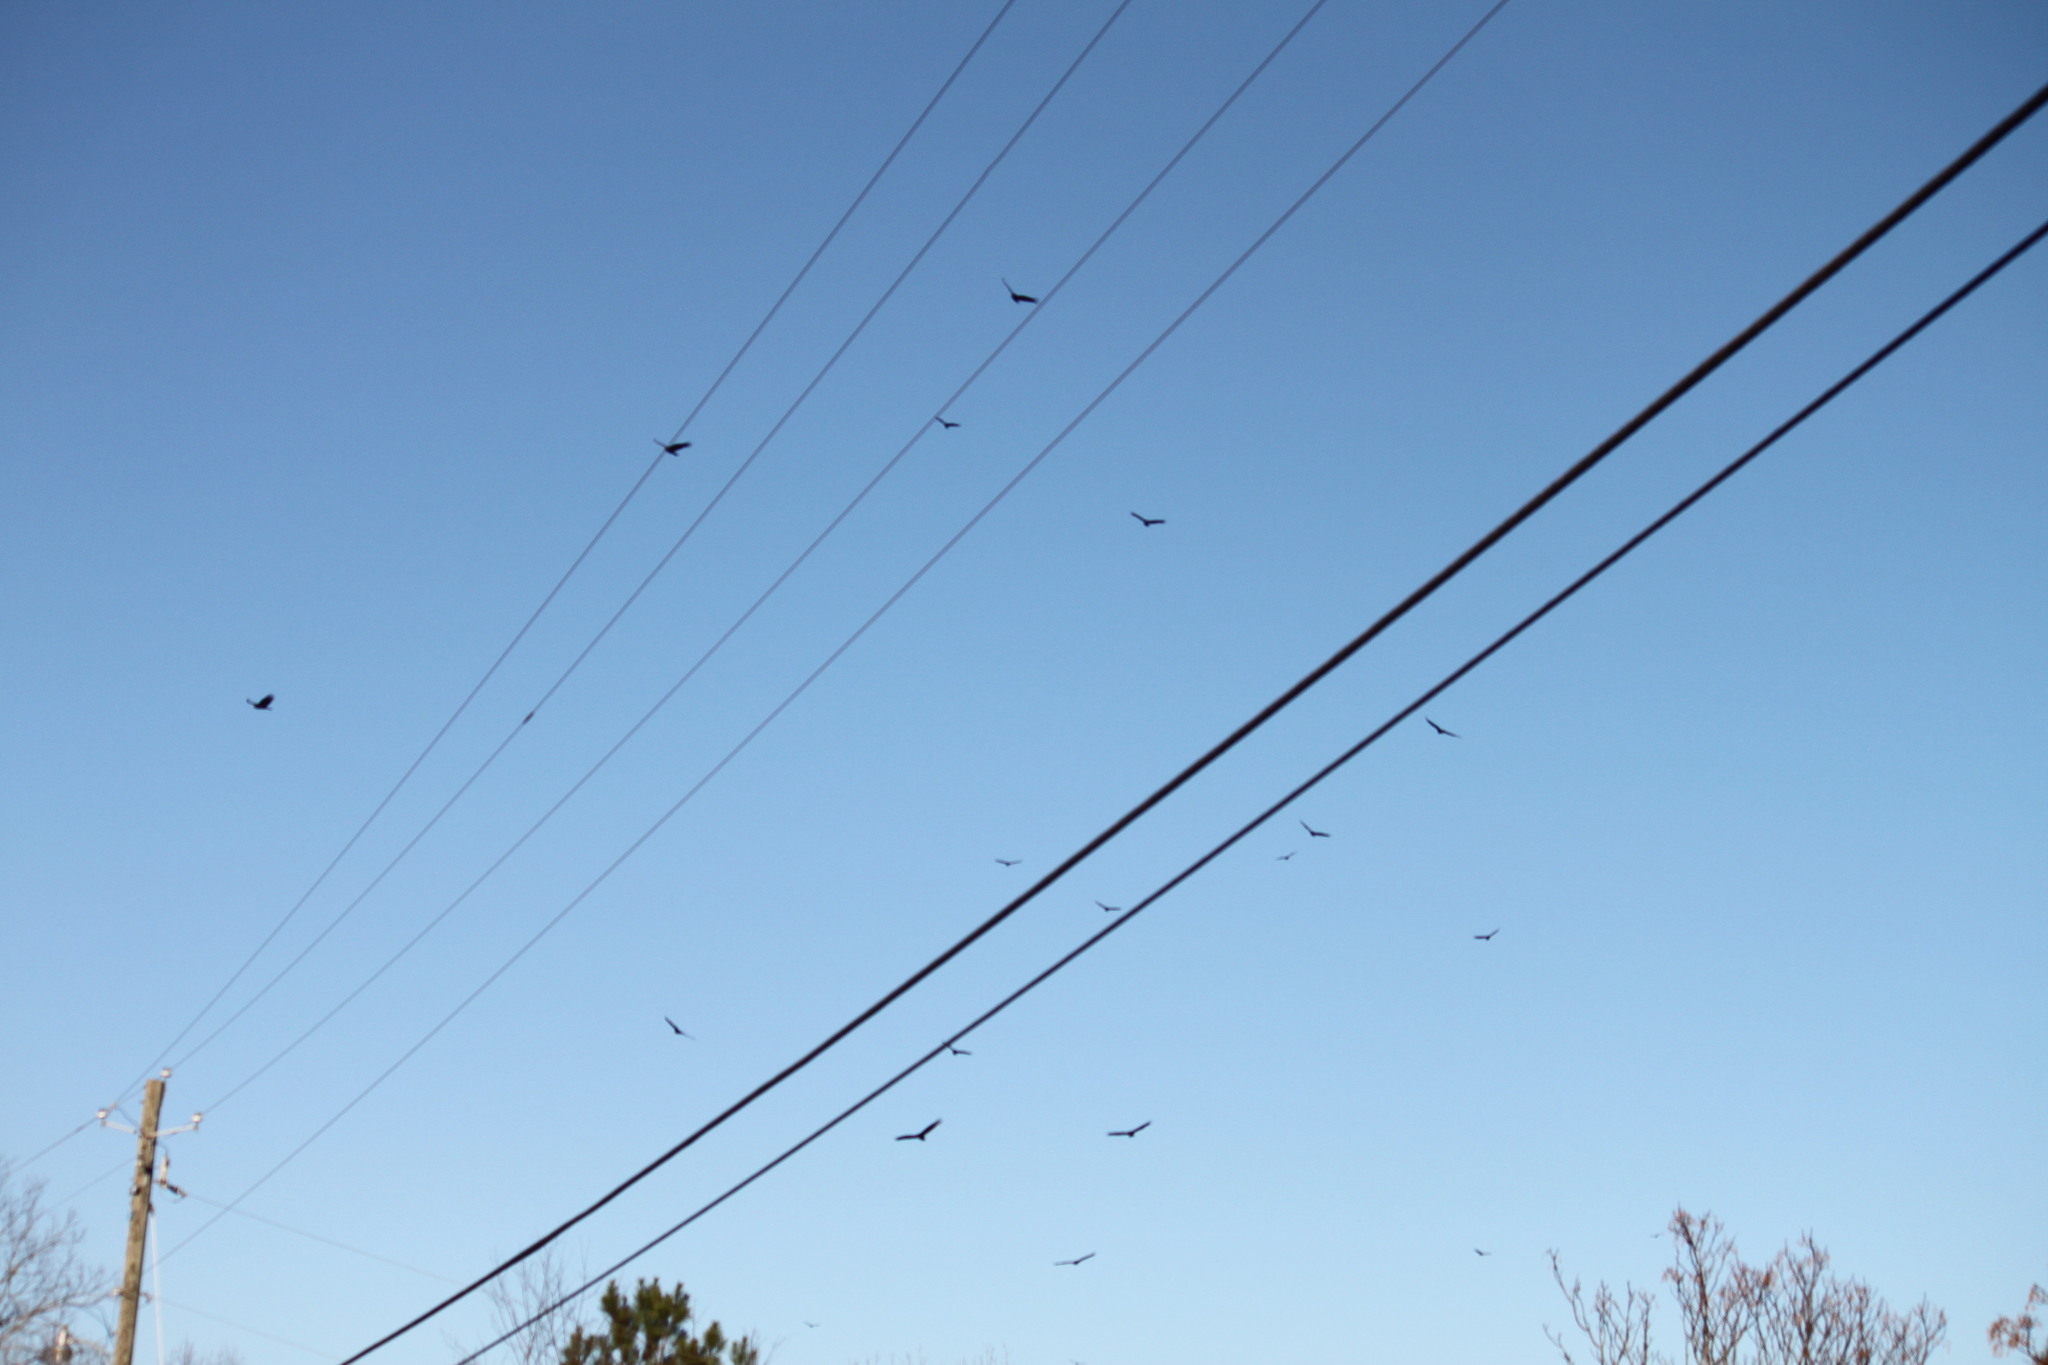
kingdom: Animalia
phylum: Chordata
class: Aves
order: Accipitriformes
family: Cathartidae
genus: Coragyps
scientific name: Coragyps atratus
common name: Black vulture
